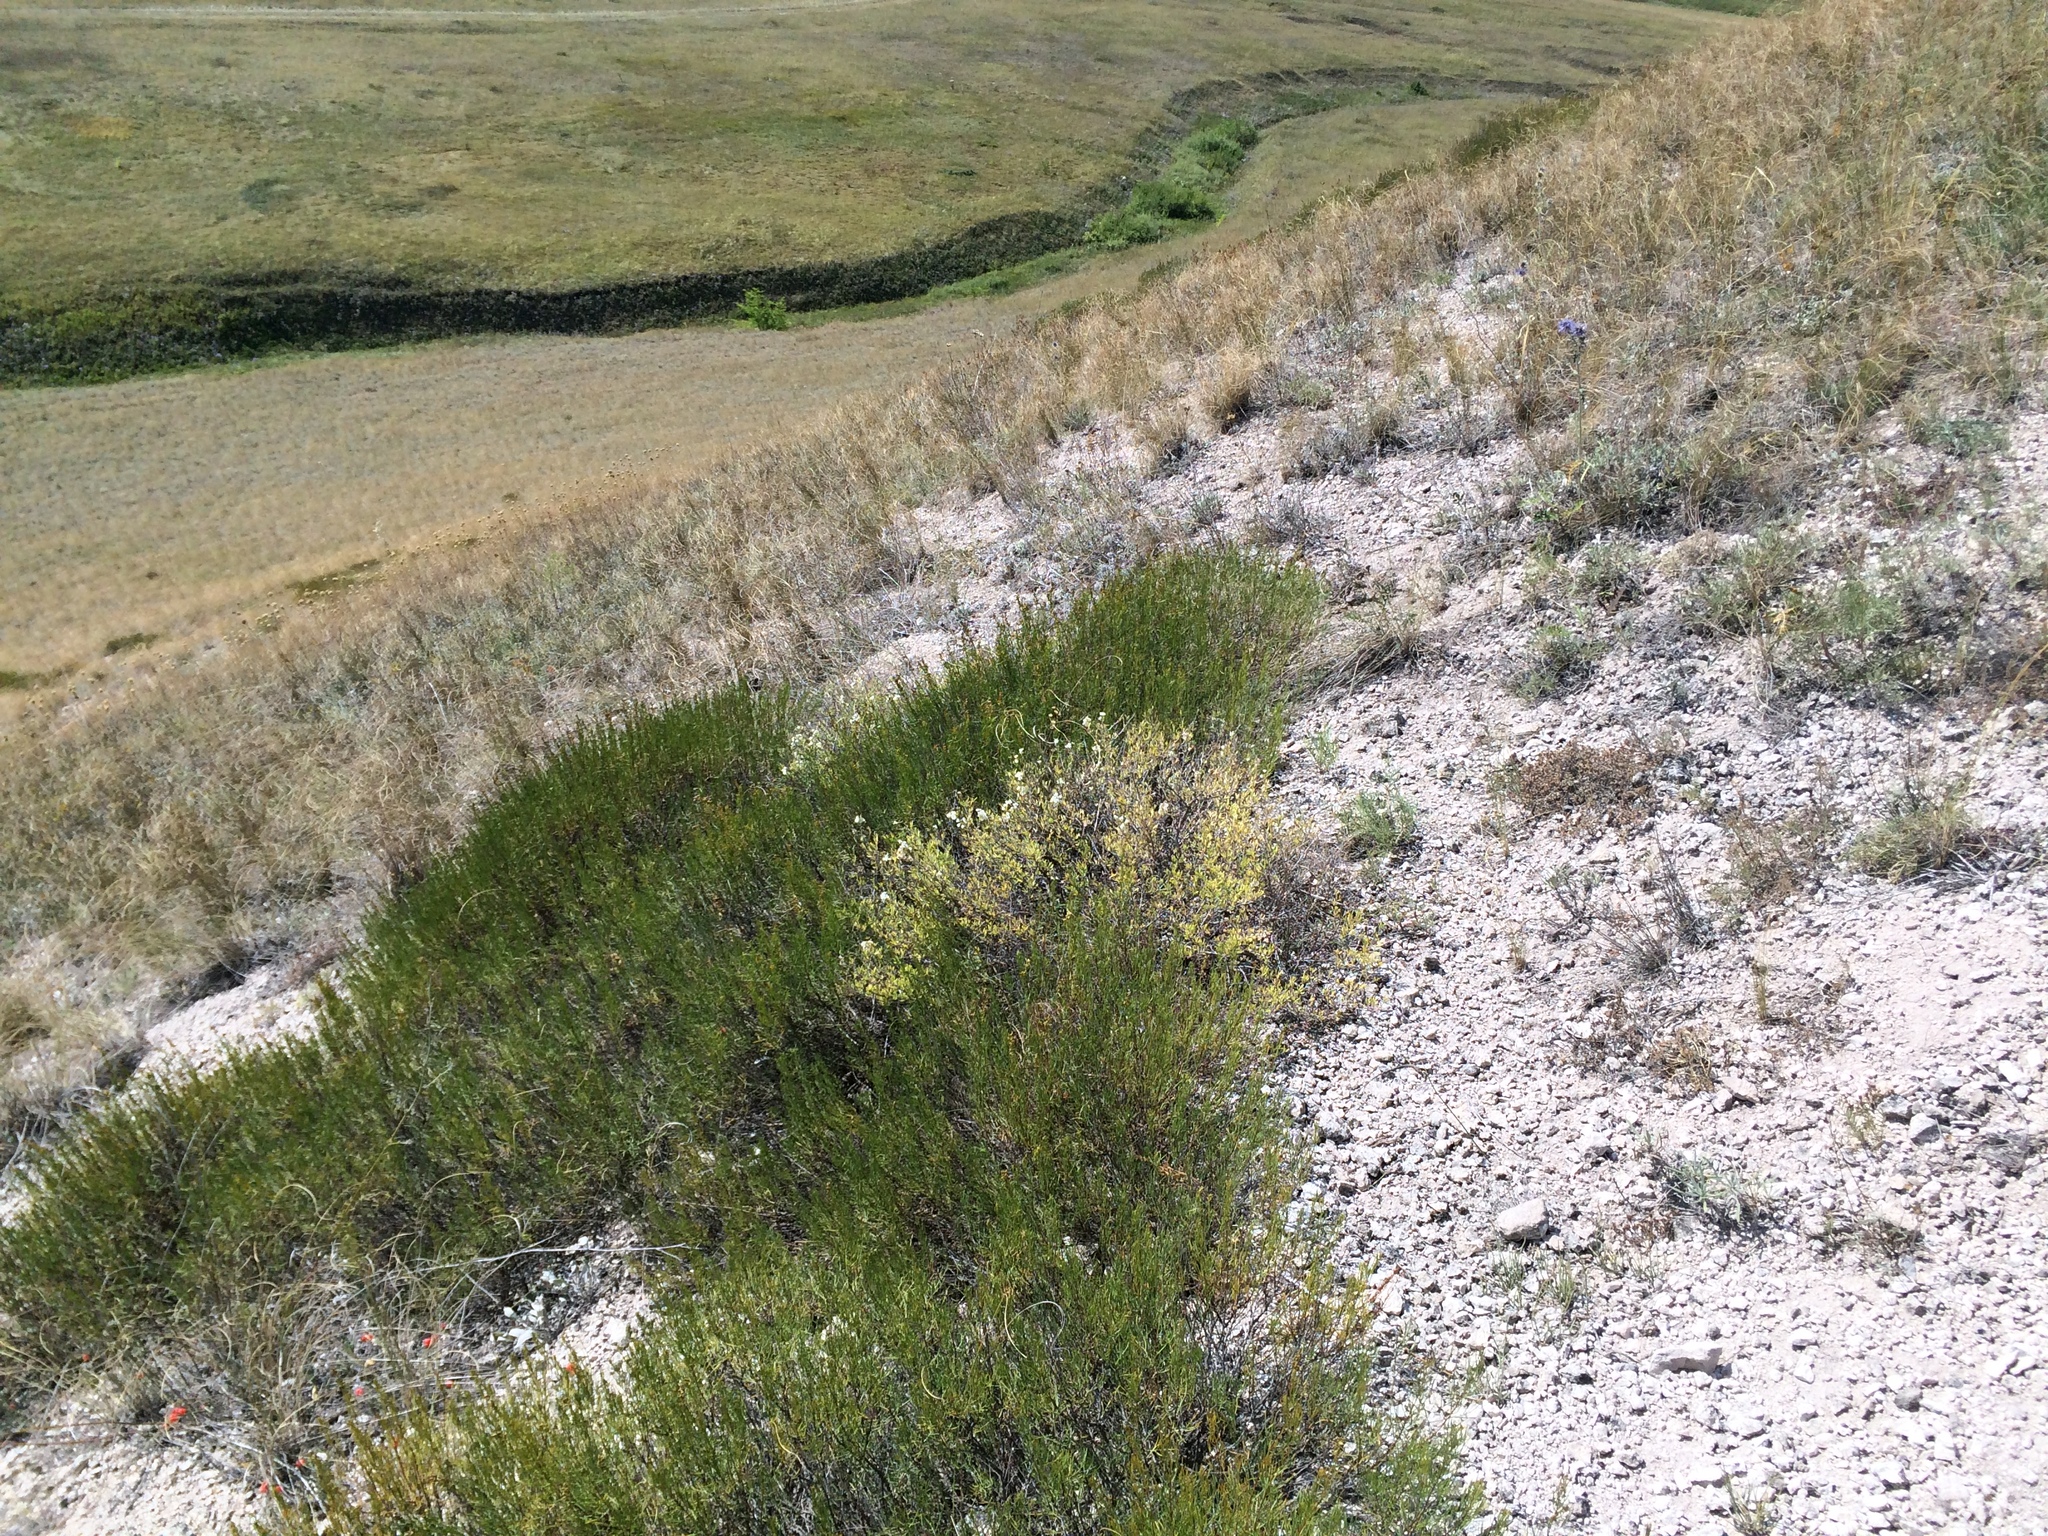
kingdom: Plantae
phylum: Tracheophyta
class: Magnoliopsida
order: Asterales
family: Asteraceae
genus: Artemisia
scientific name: Artemisia salsoloides
